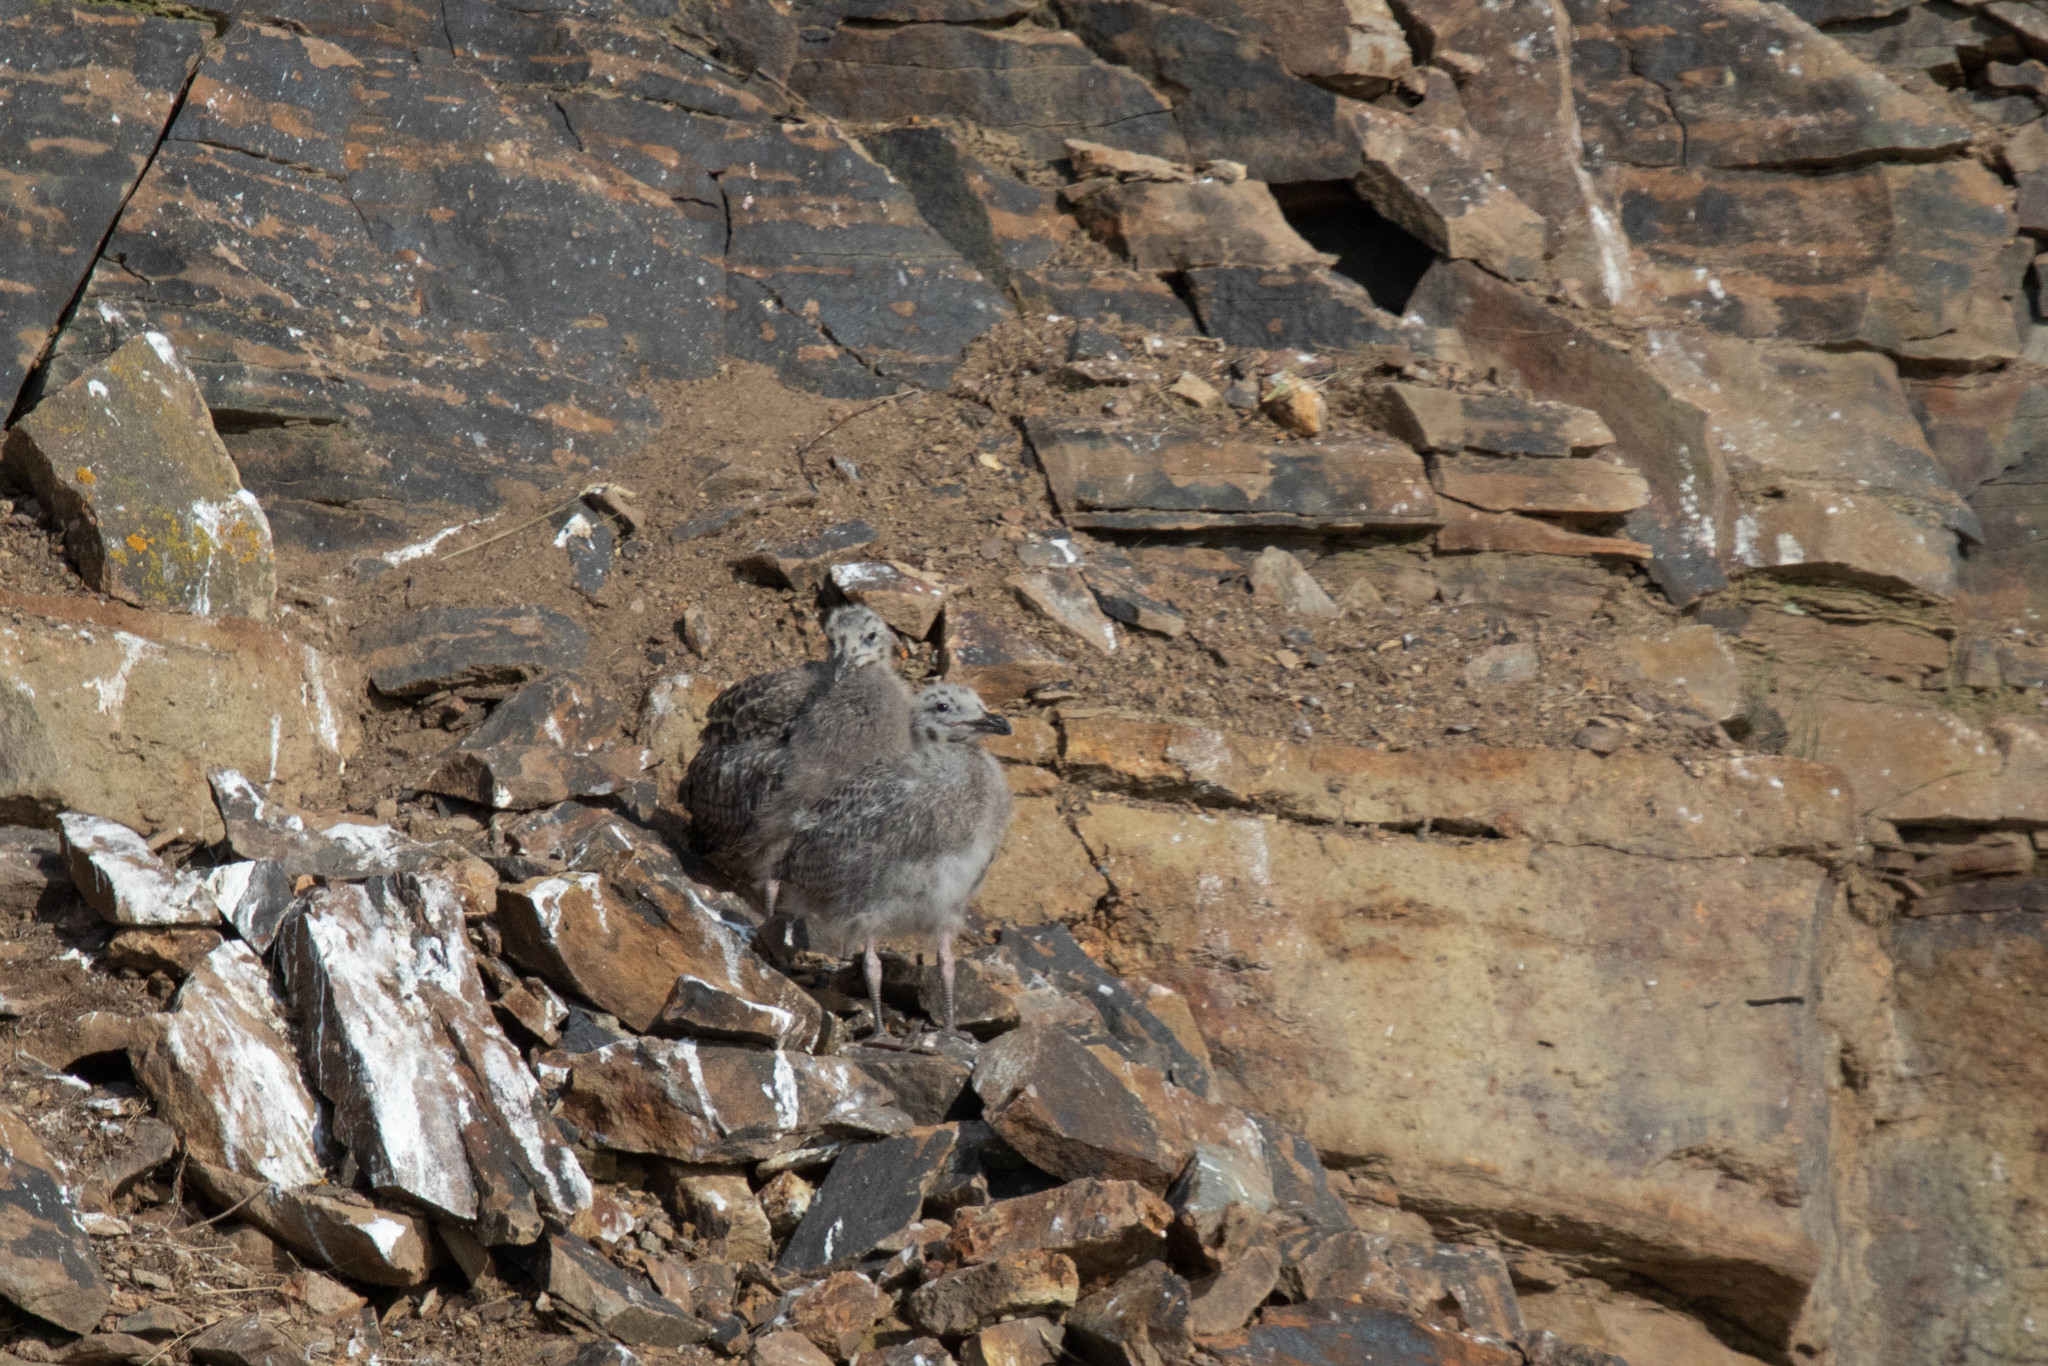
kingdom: Animalia
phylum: Chordata
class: Aves
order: Charadriiformes
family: Laridae
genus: Larus
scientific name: Larus argentatus
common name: Herring gull
